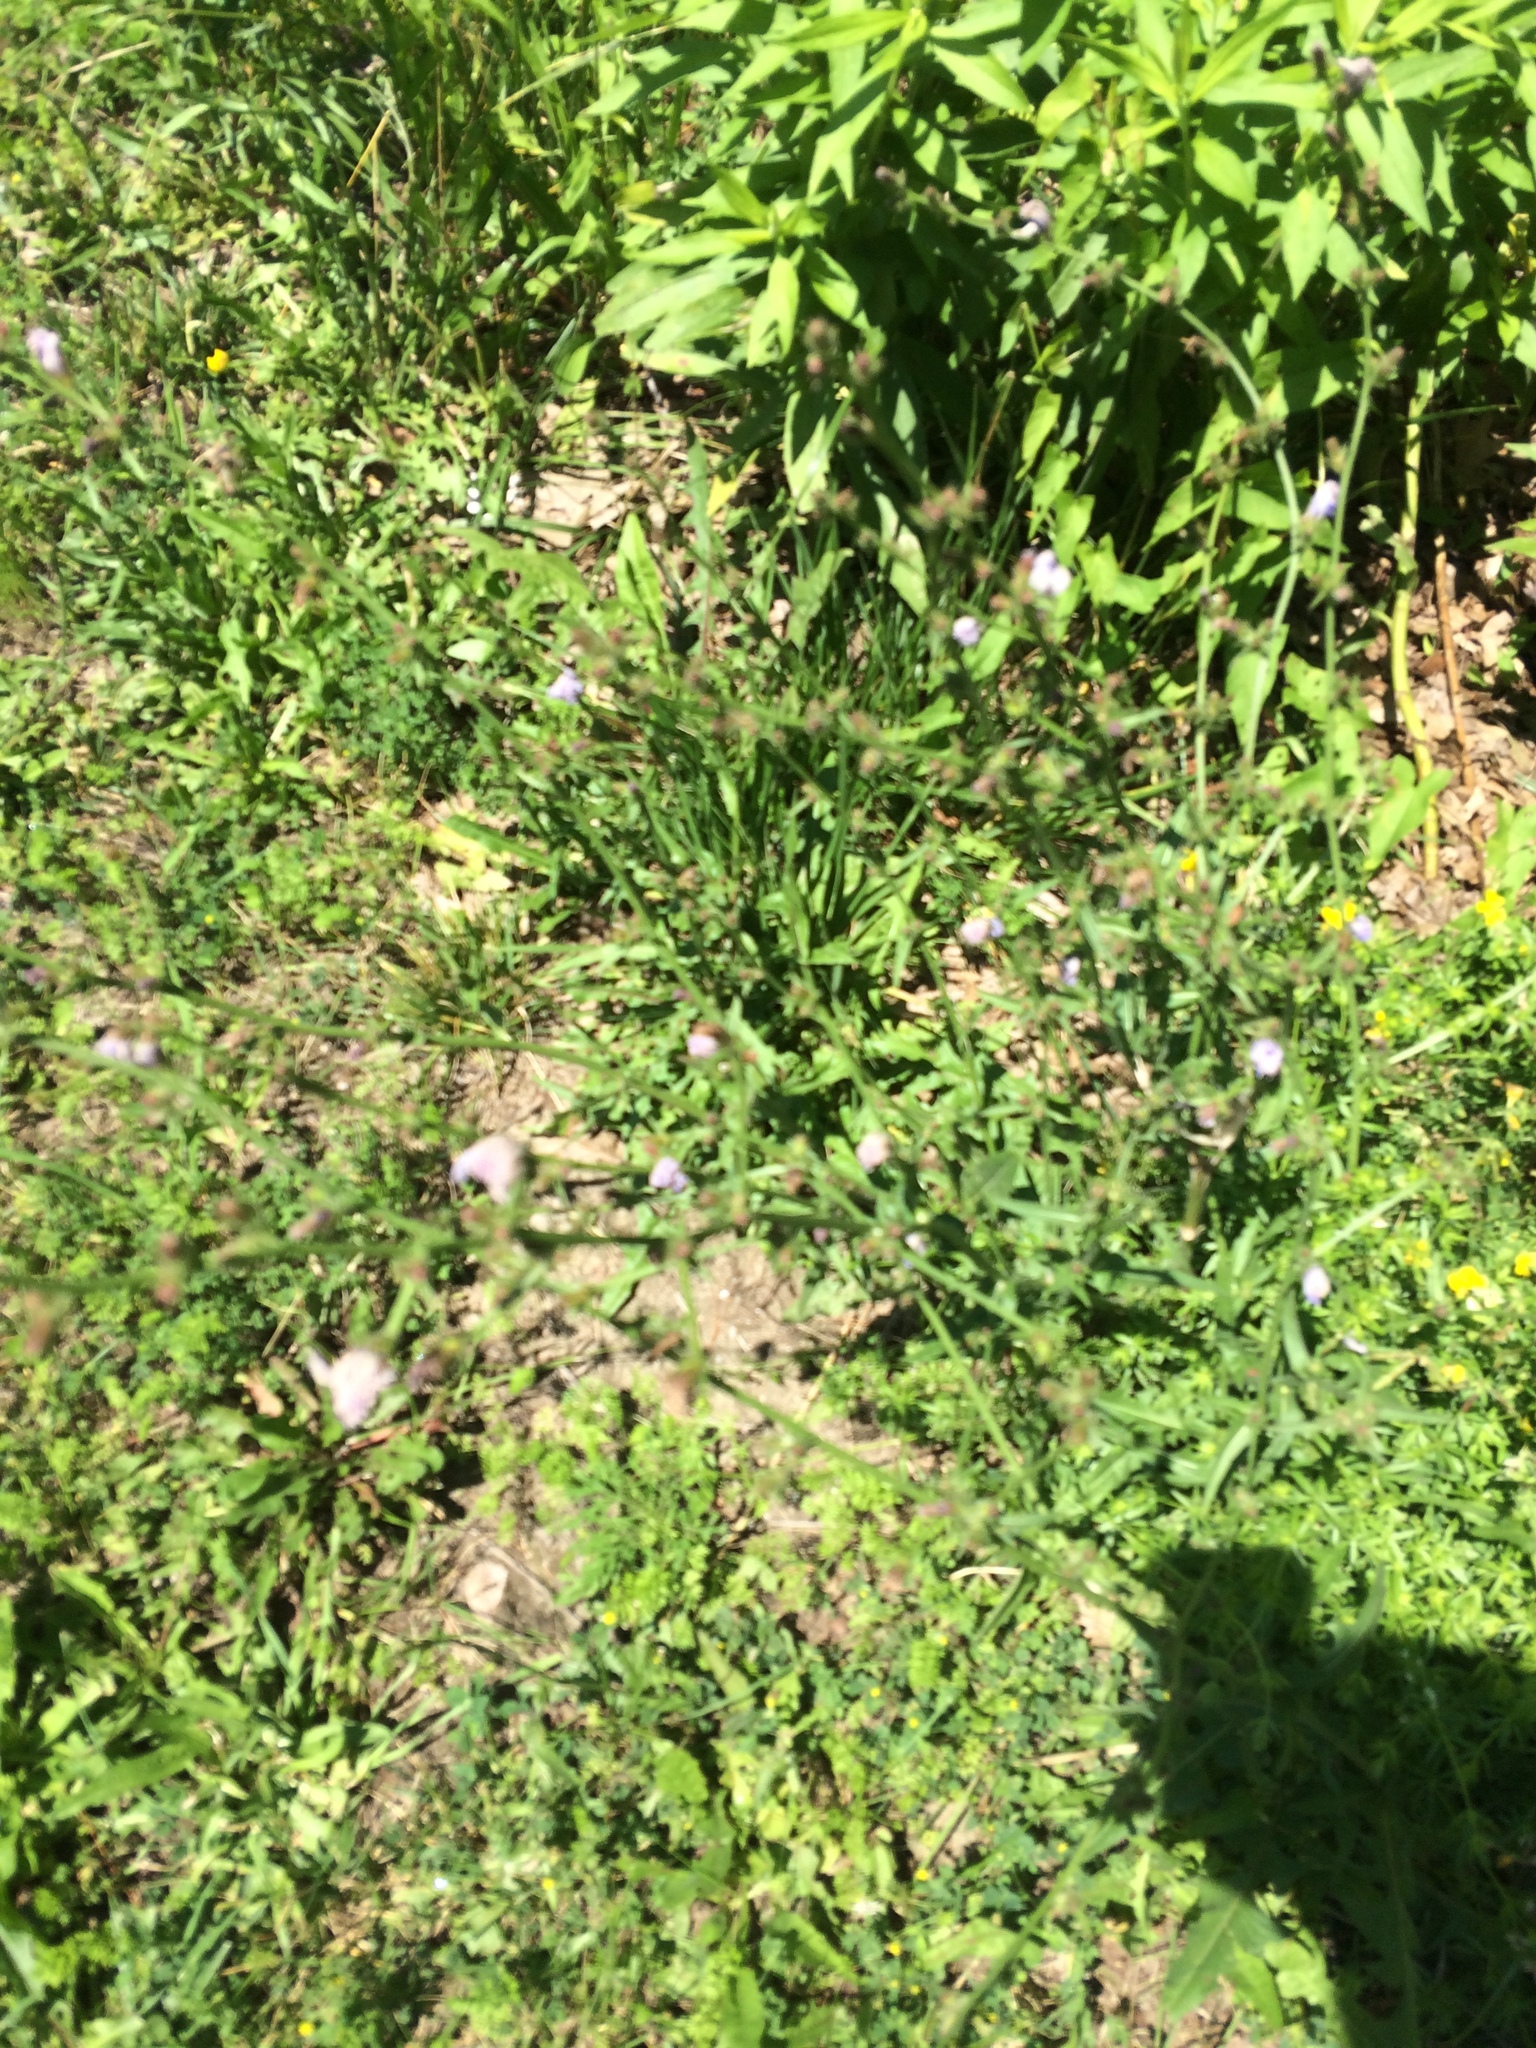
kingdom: Plantae
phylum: Tracheophyta
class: Magnoliopsida
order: Asterales
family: Asteraceae
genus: Cichorium
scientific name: Cichorium intybus
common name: Chicory
